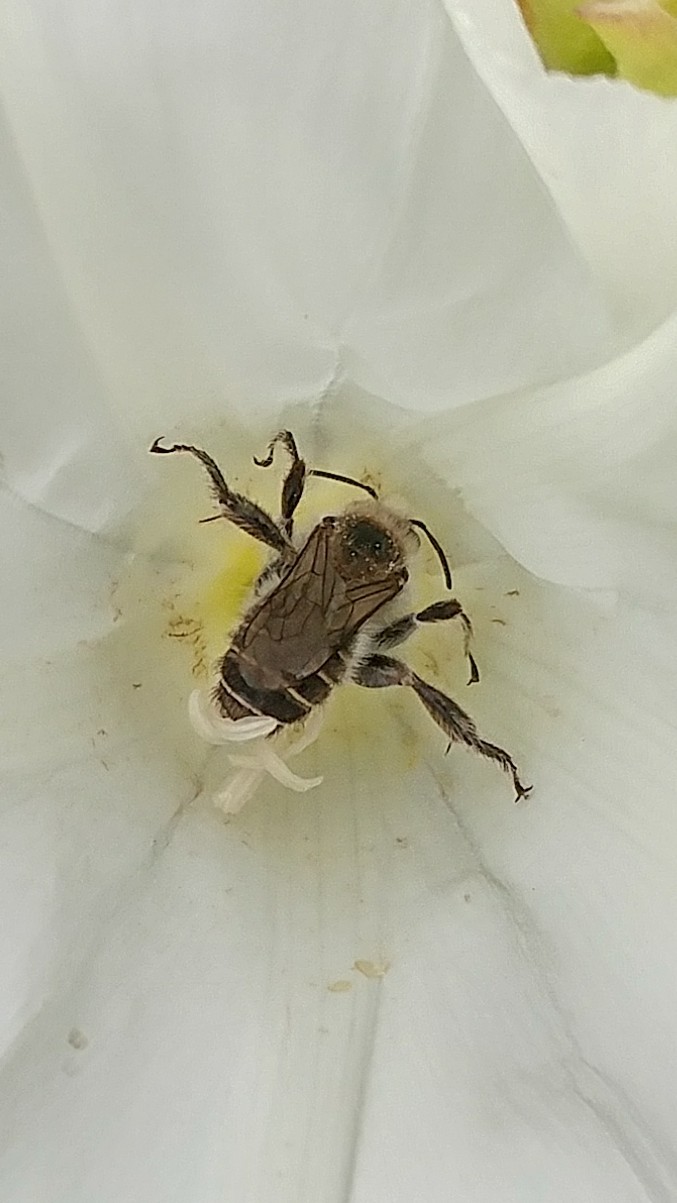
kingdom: Animalia
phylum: Arthropoda
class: Insecta
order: Hymenoptera
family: Apidae
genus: Diadasia
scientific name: Diadasia bituberculata
